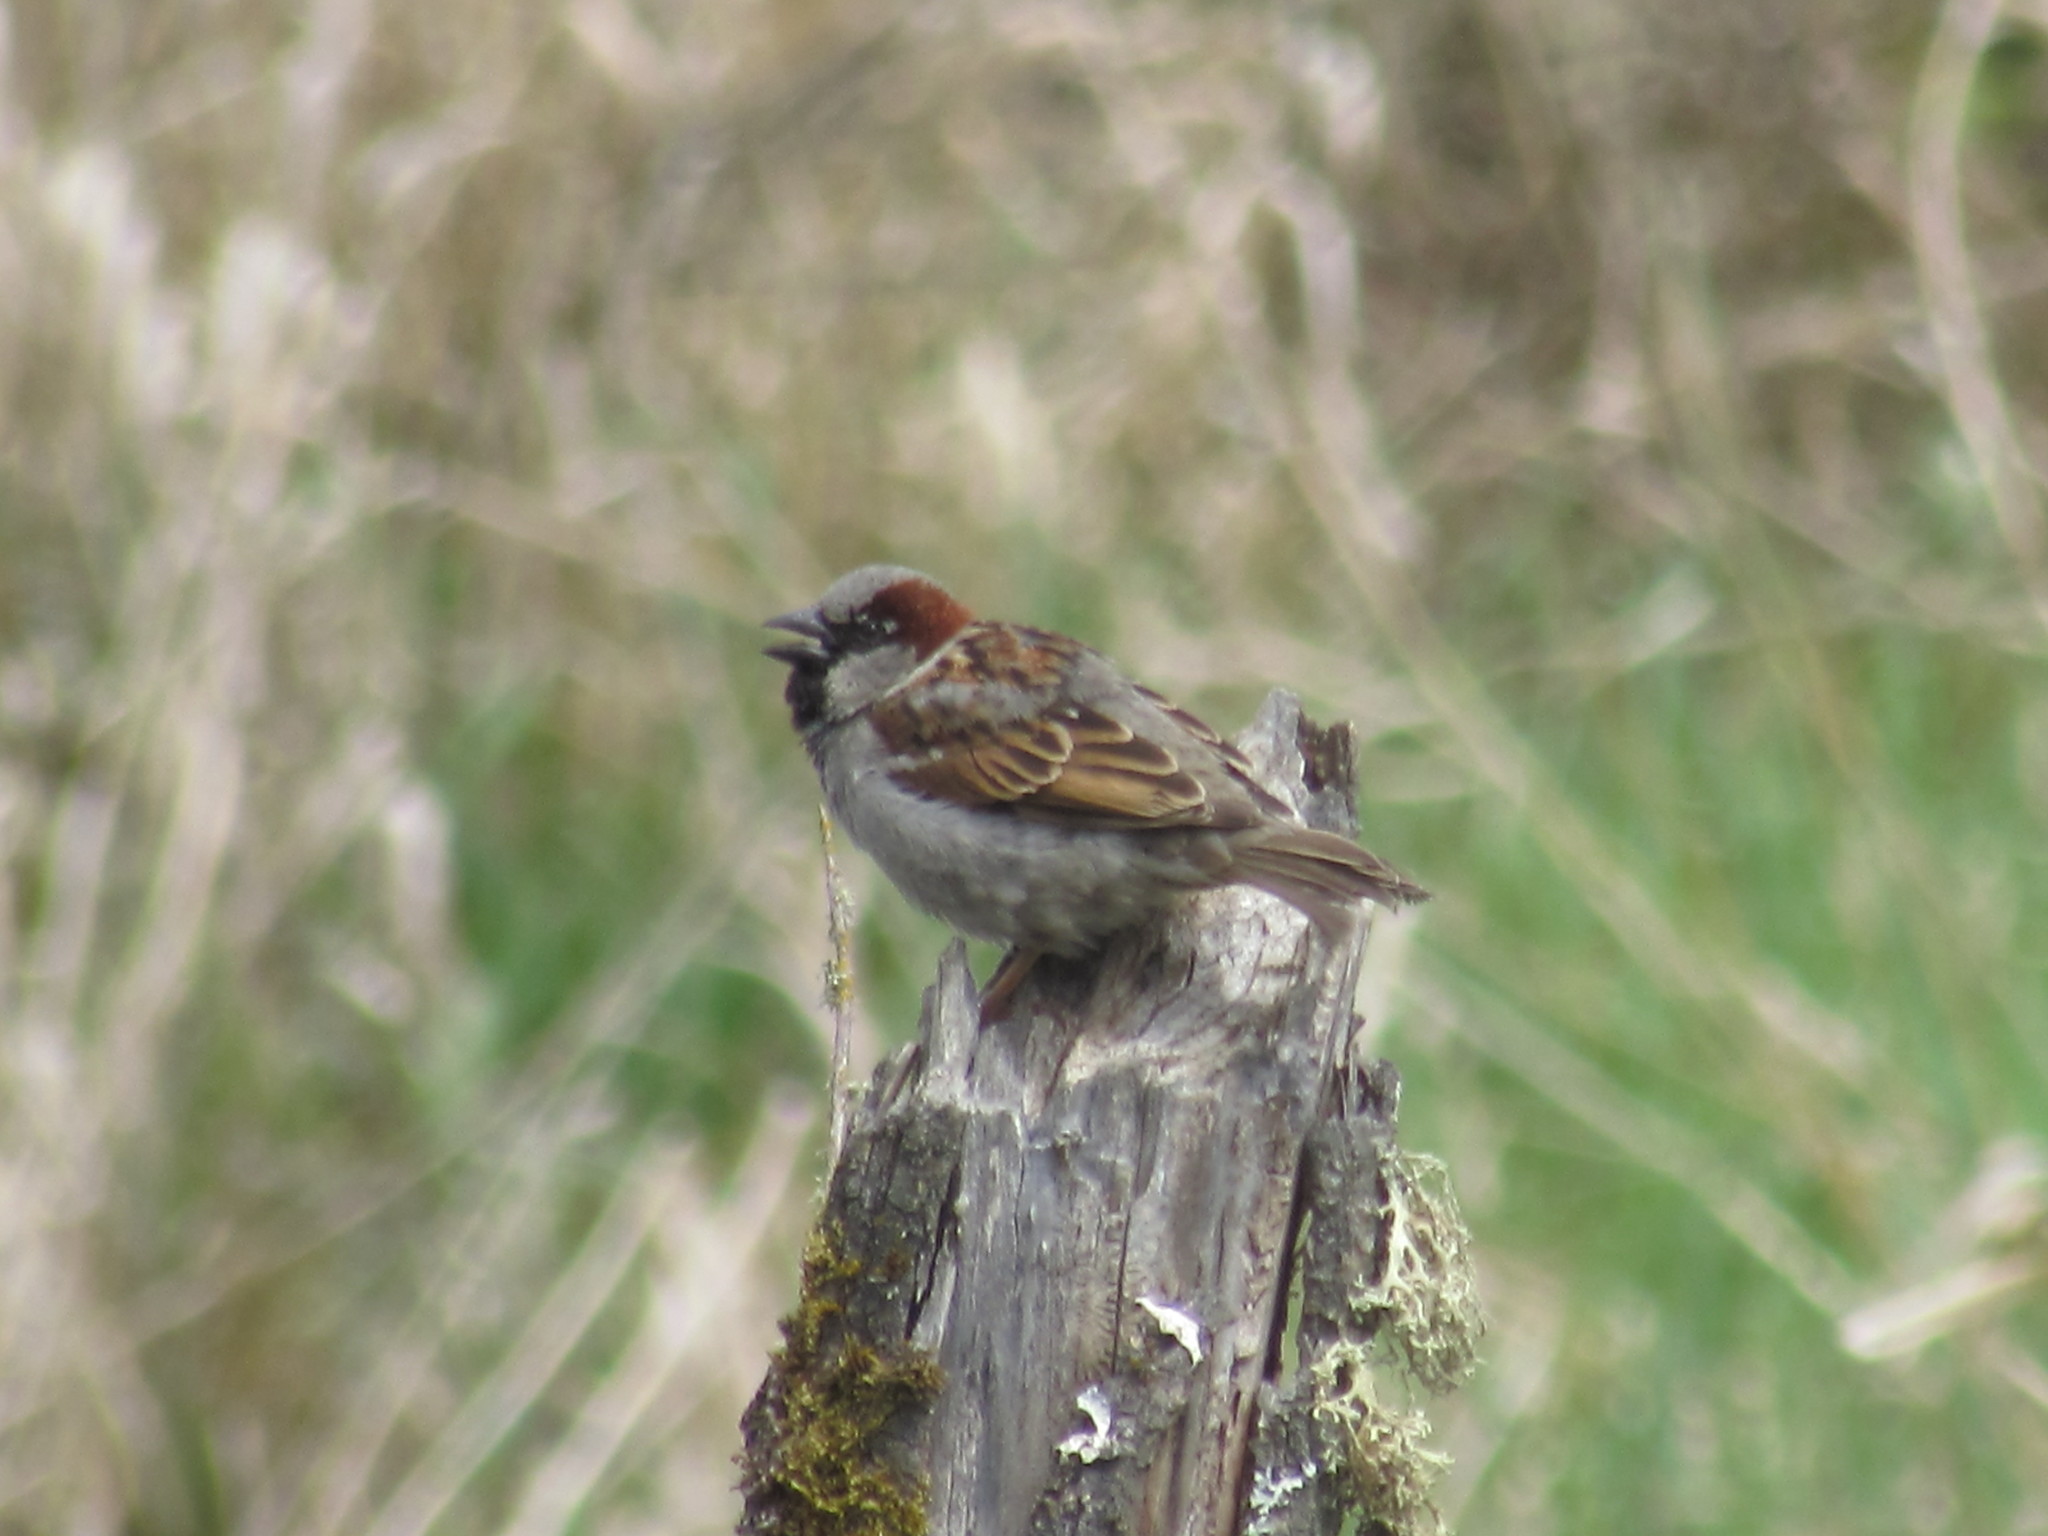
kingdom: Animalia
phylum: Chordata
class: Aves
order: Passeriformes
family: Passeridae
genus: Passer
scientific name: Passer domesticus
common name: House sparrow
